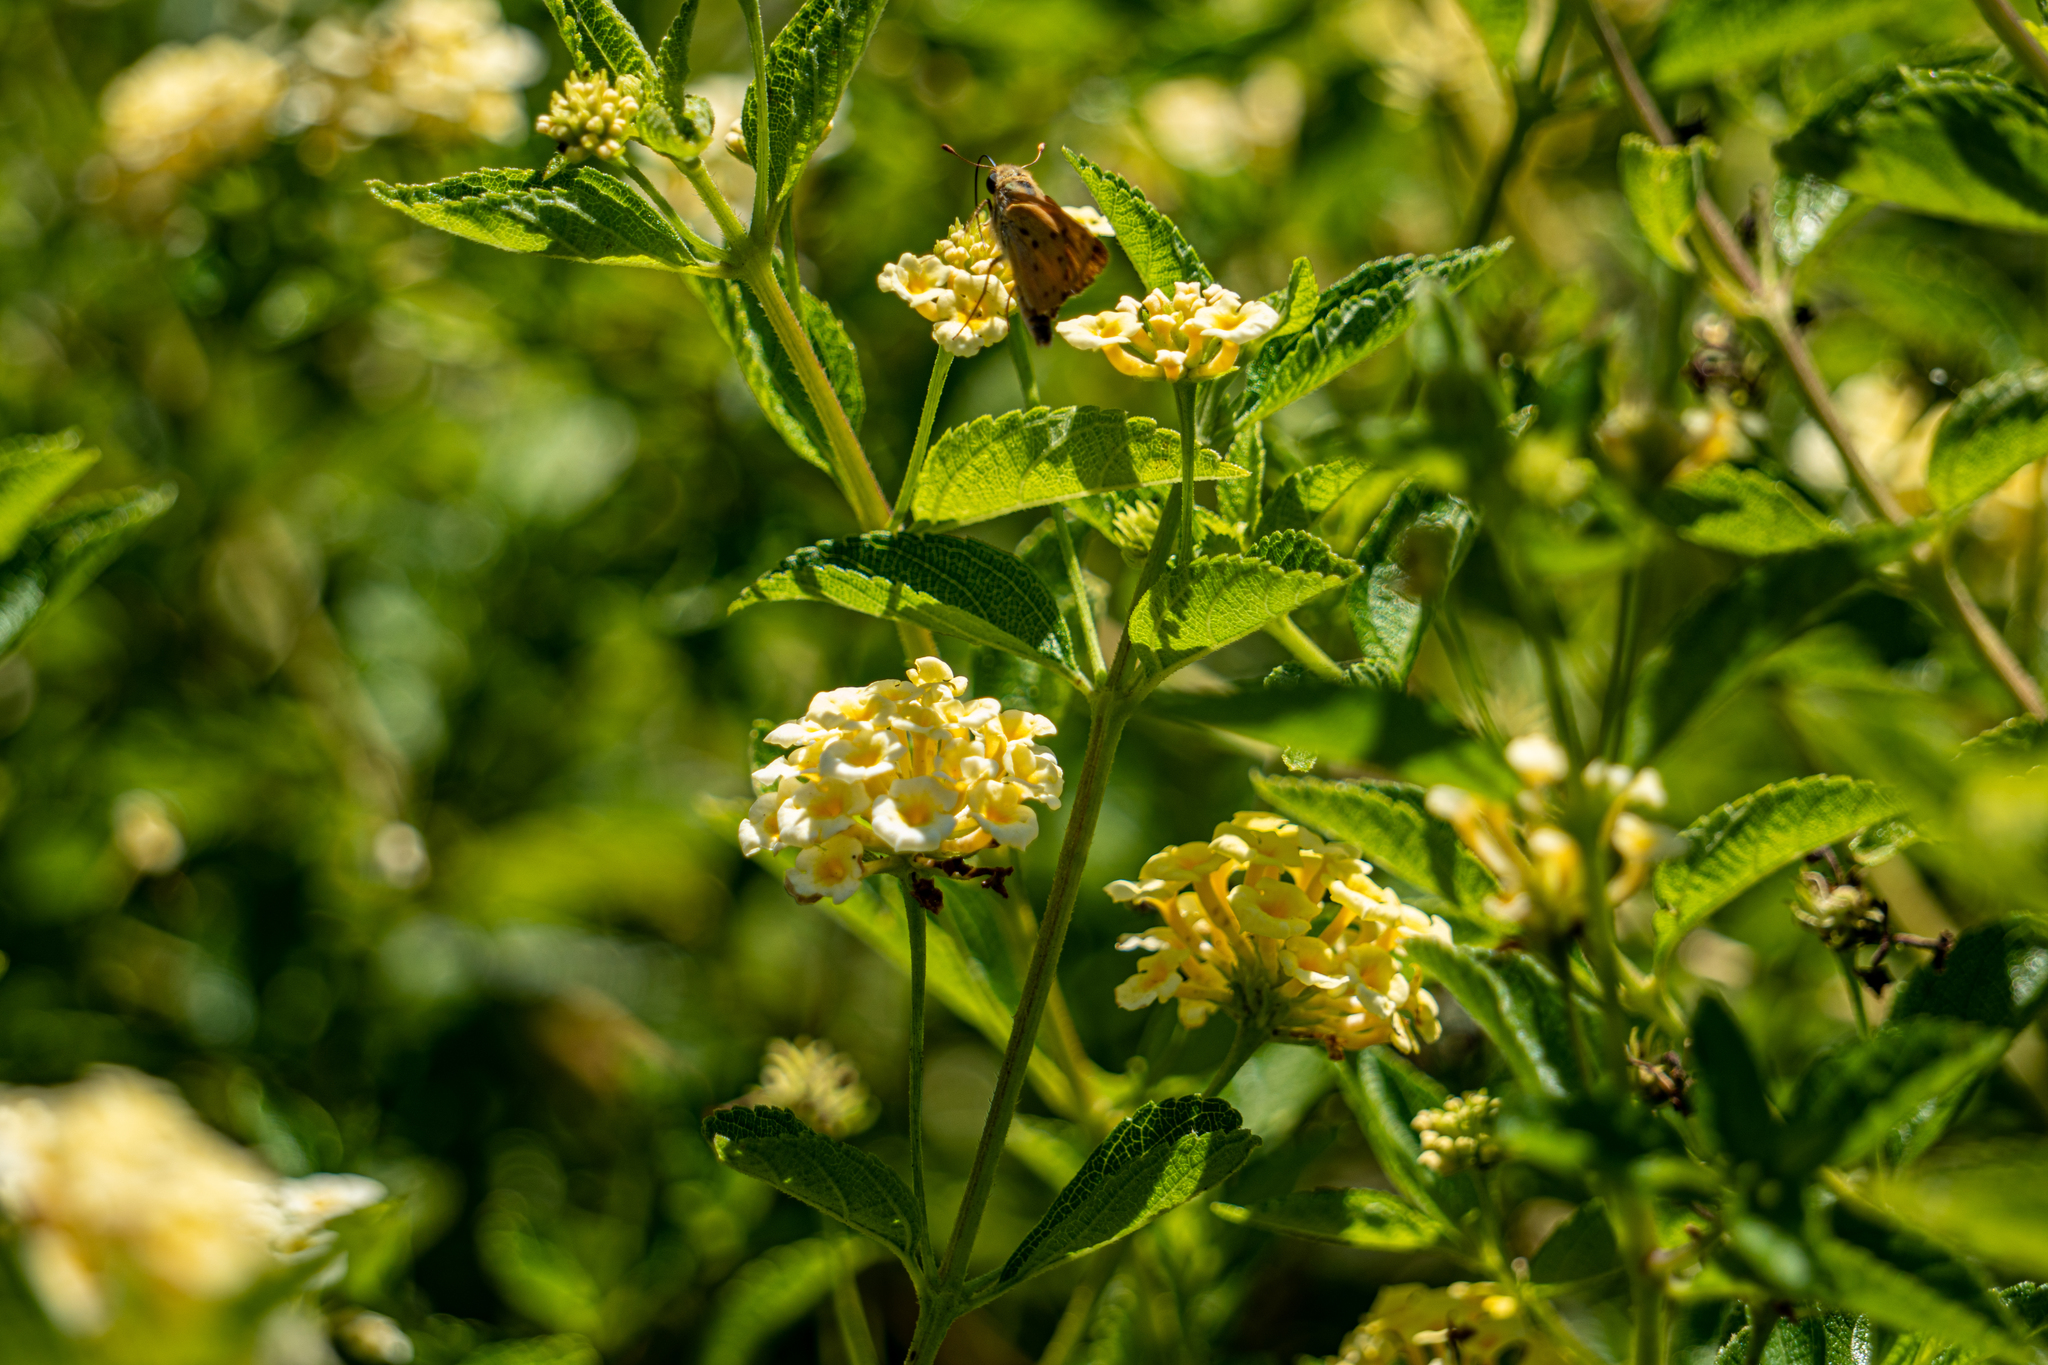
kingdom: Animalia
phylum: Arthropoda
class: Insecta
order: Lepidoptera
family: Hesperiidae
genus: Hylephila
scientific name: Hylephila phyleus
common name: Fiery skipper
